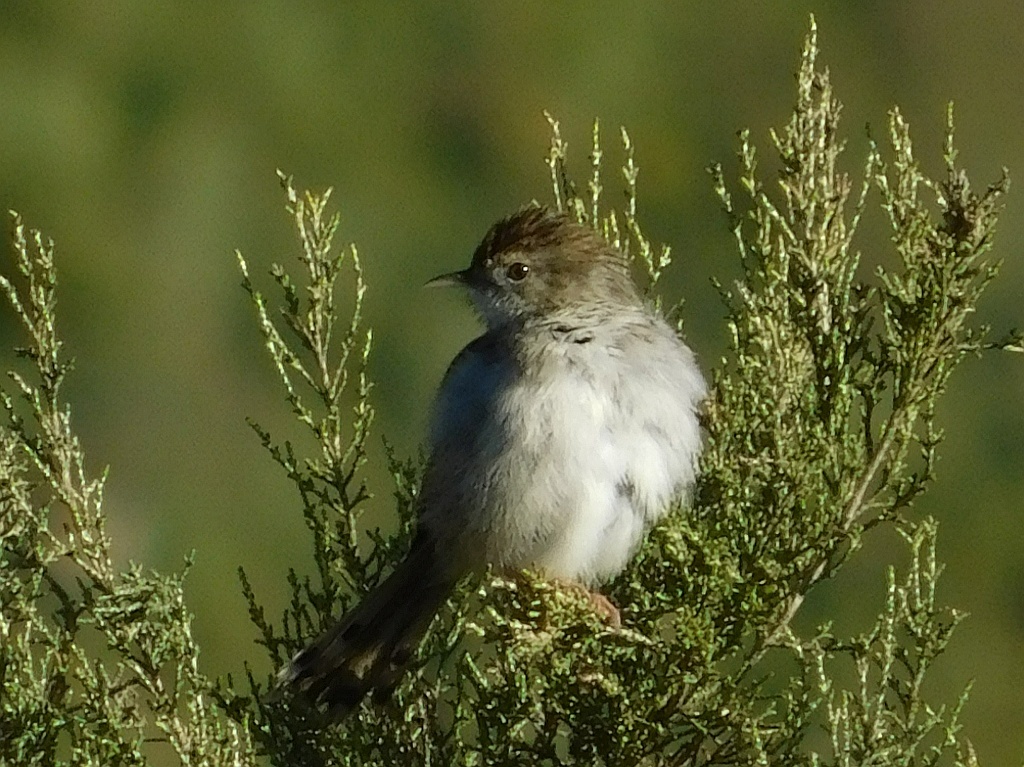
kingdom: Animalia
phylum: Chordata
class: Aves
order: Passeriformes
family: Cisticolidae
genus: Cisticola
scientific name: Cisticola fulvicapilla
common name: Neddicky
